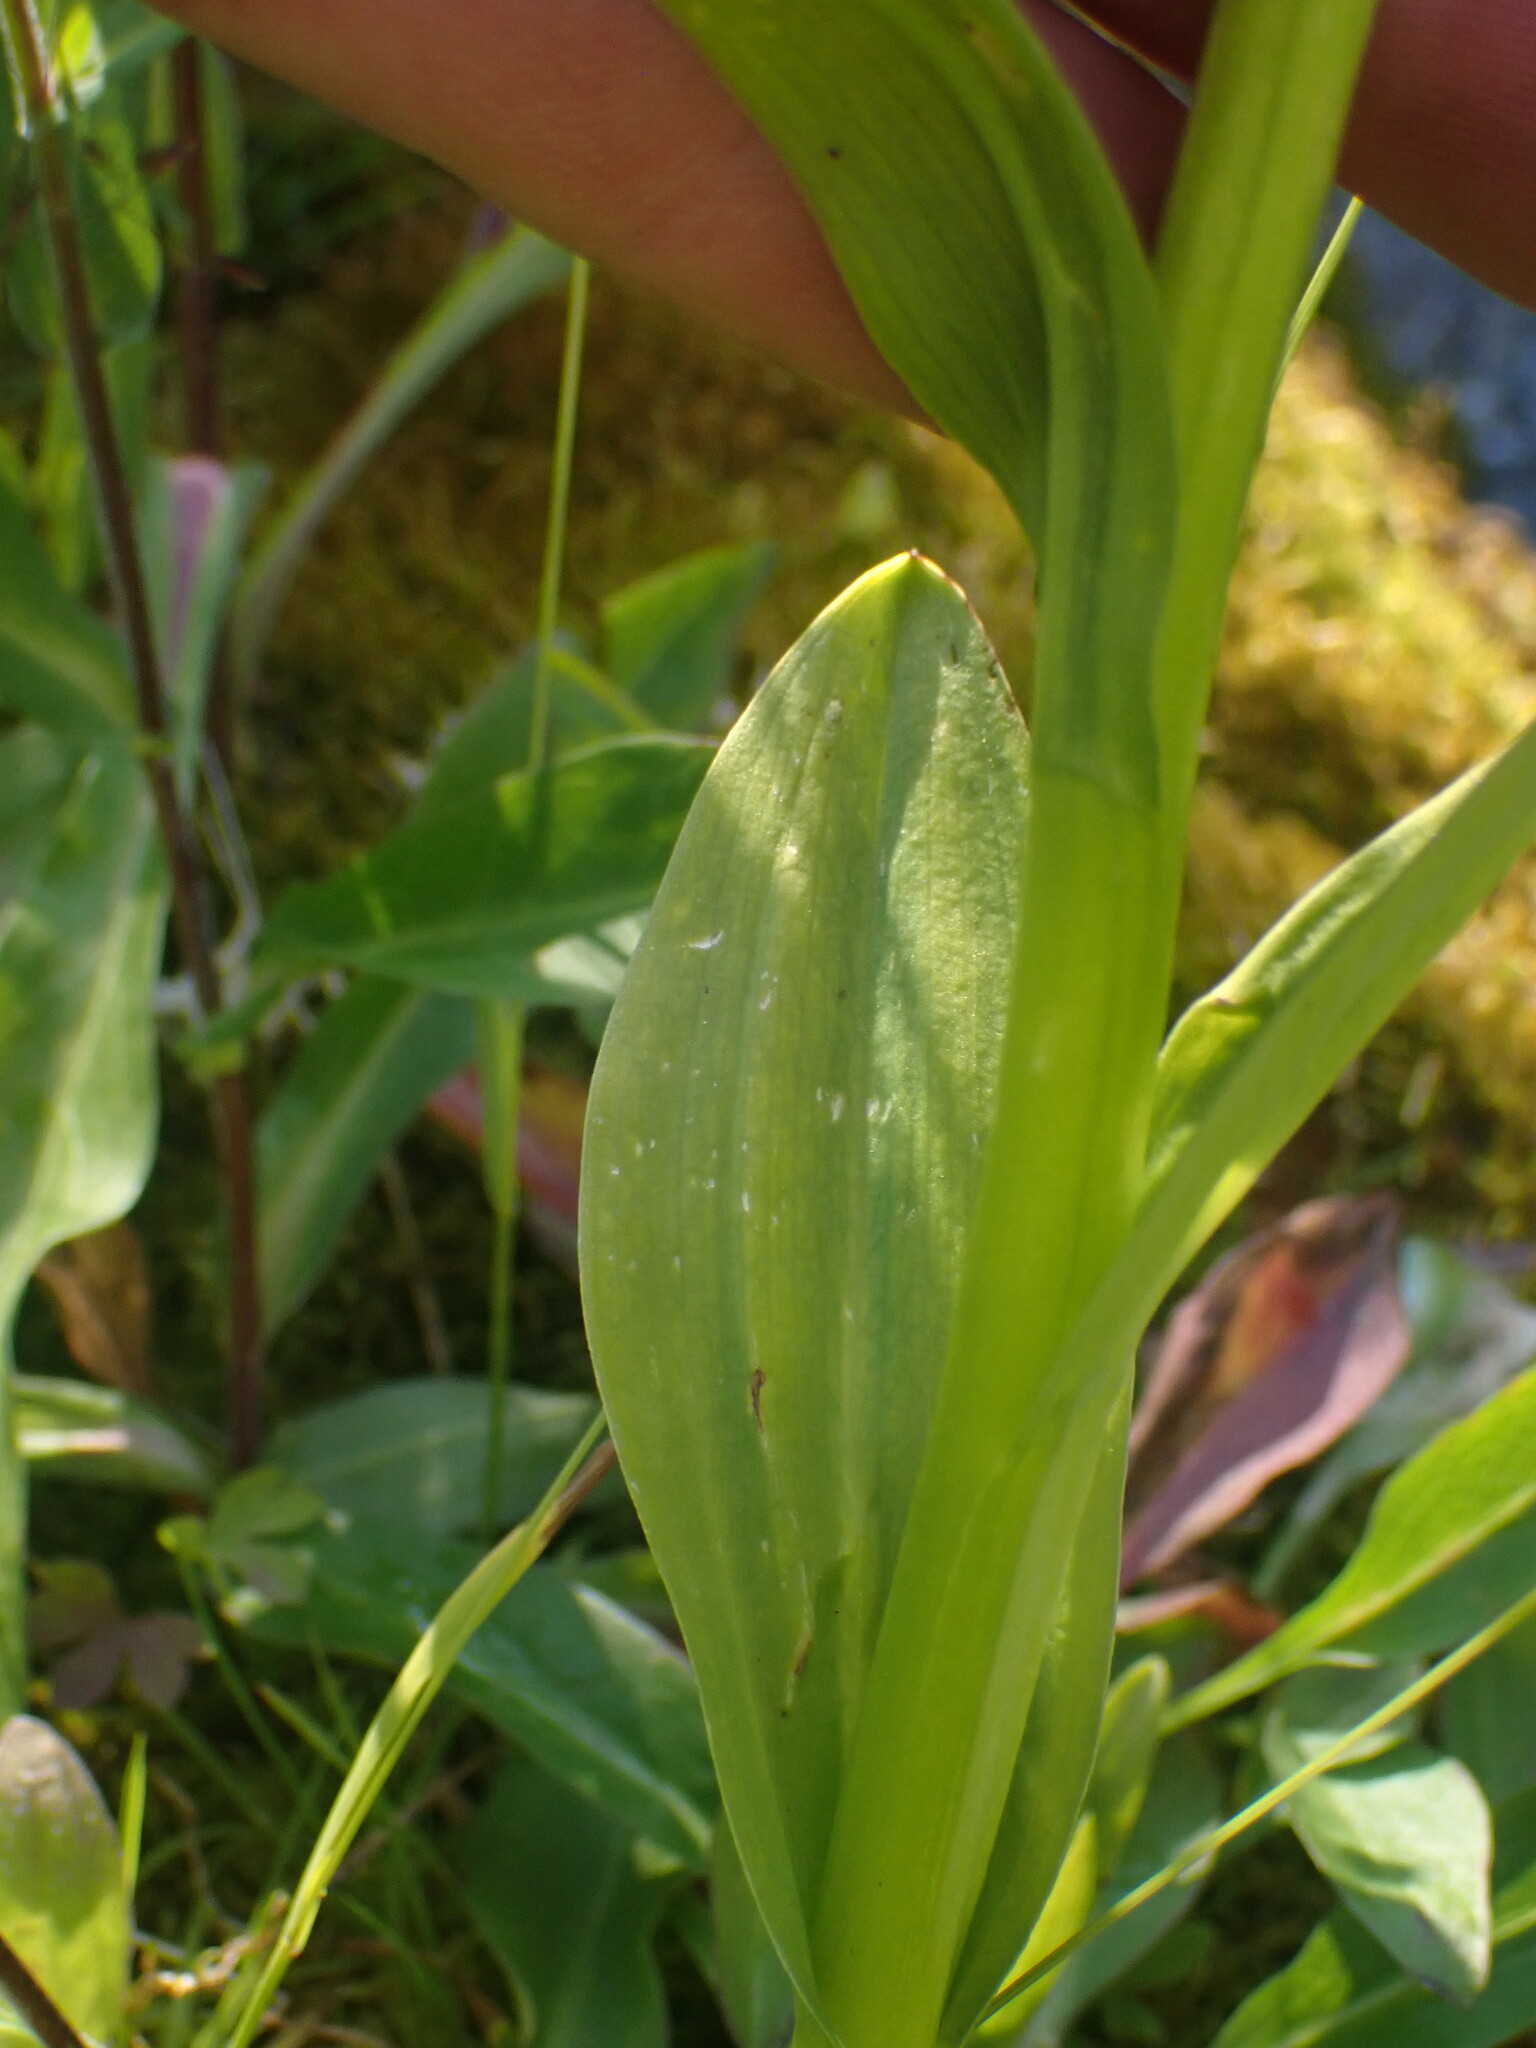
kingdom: Plantae
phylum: Tracheophyta
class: Liliopsida
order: Asparagales
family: Orchidaceae
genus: Platanthera
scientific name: Platanthera stricta
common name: Slender bog orchid
